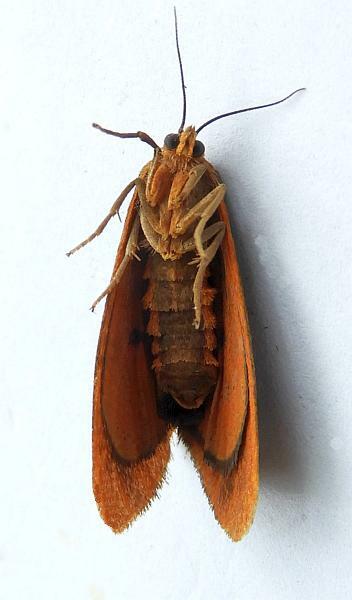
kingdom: Animalia
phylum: Arthropoda
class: Insecta
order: Lepidoptera
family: Erebidae
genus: Virbia
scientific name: Virbia opella
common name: Tawny virbia moth
